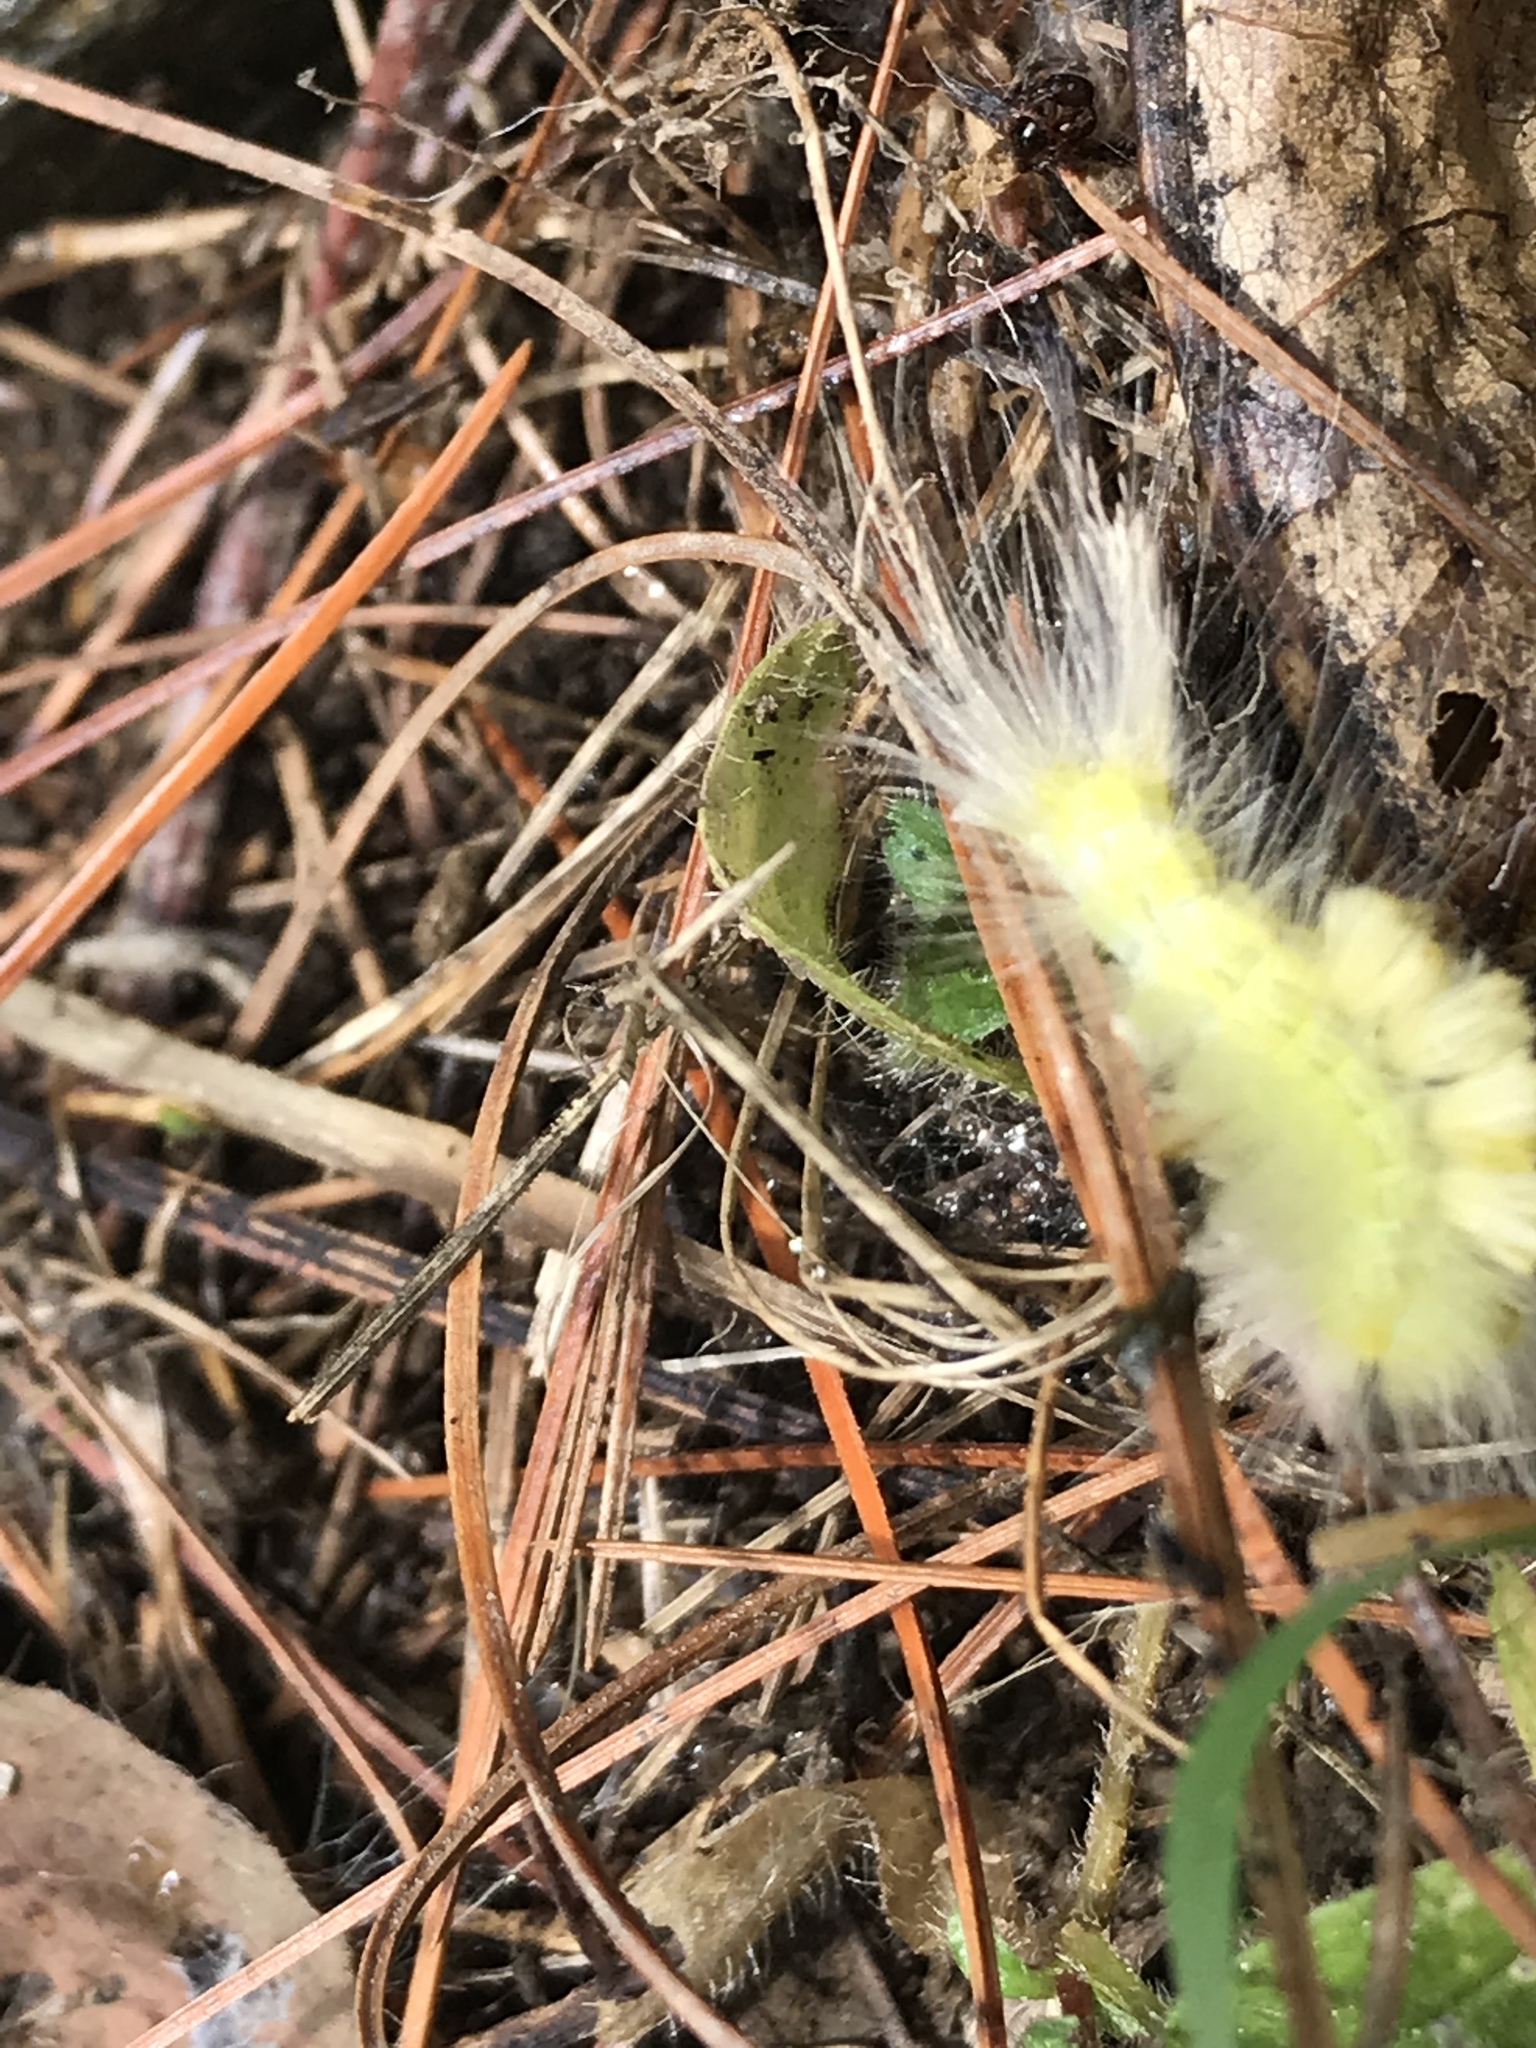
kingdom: Animalia
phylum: Arthropoda
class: Insecta
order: Lepidoptera
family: Erebidae
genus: Orgyia
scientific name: Orgyia definita
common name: Definite tussock moth
